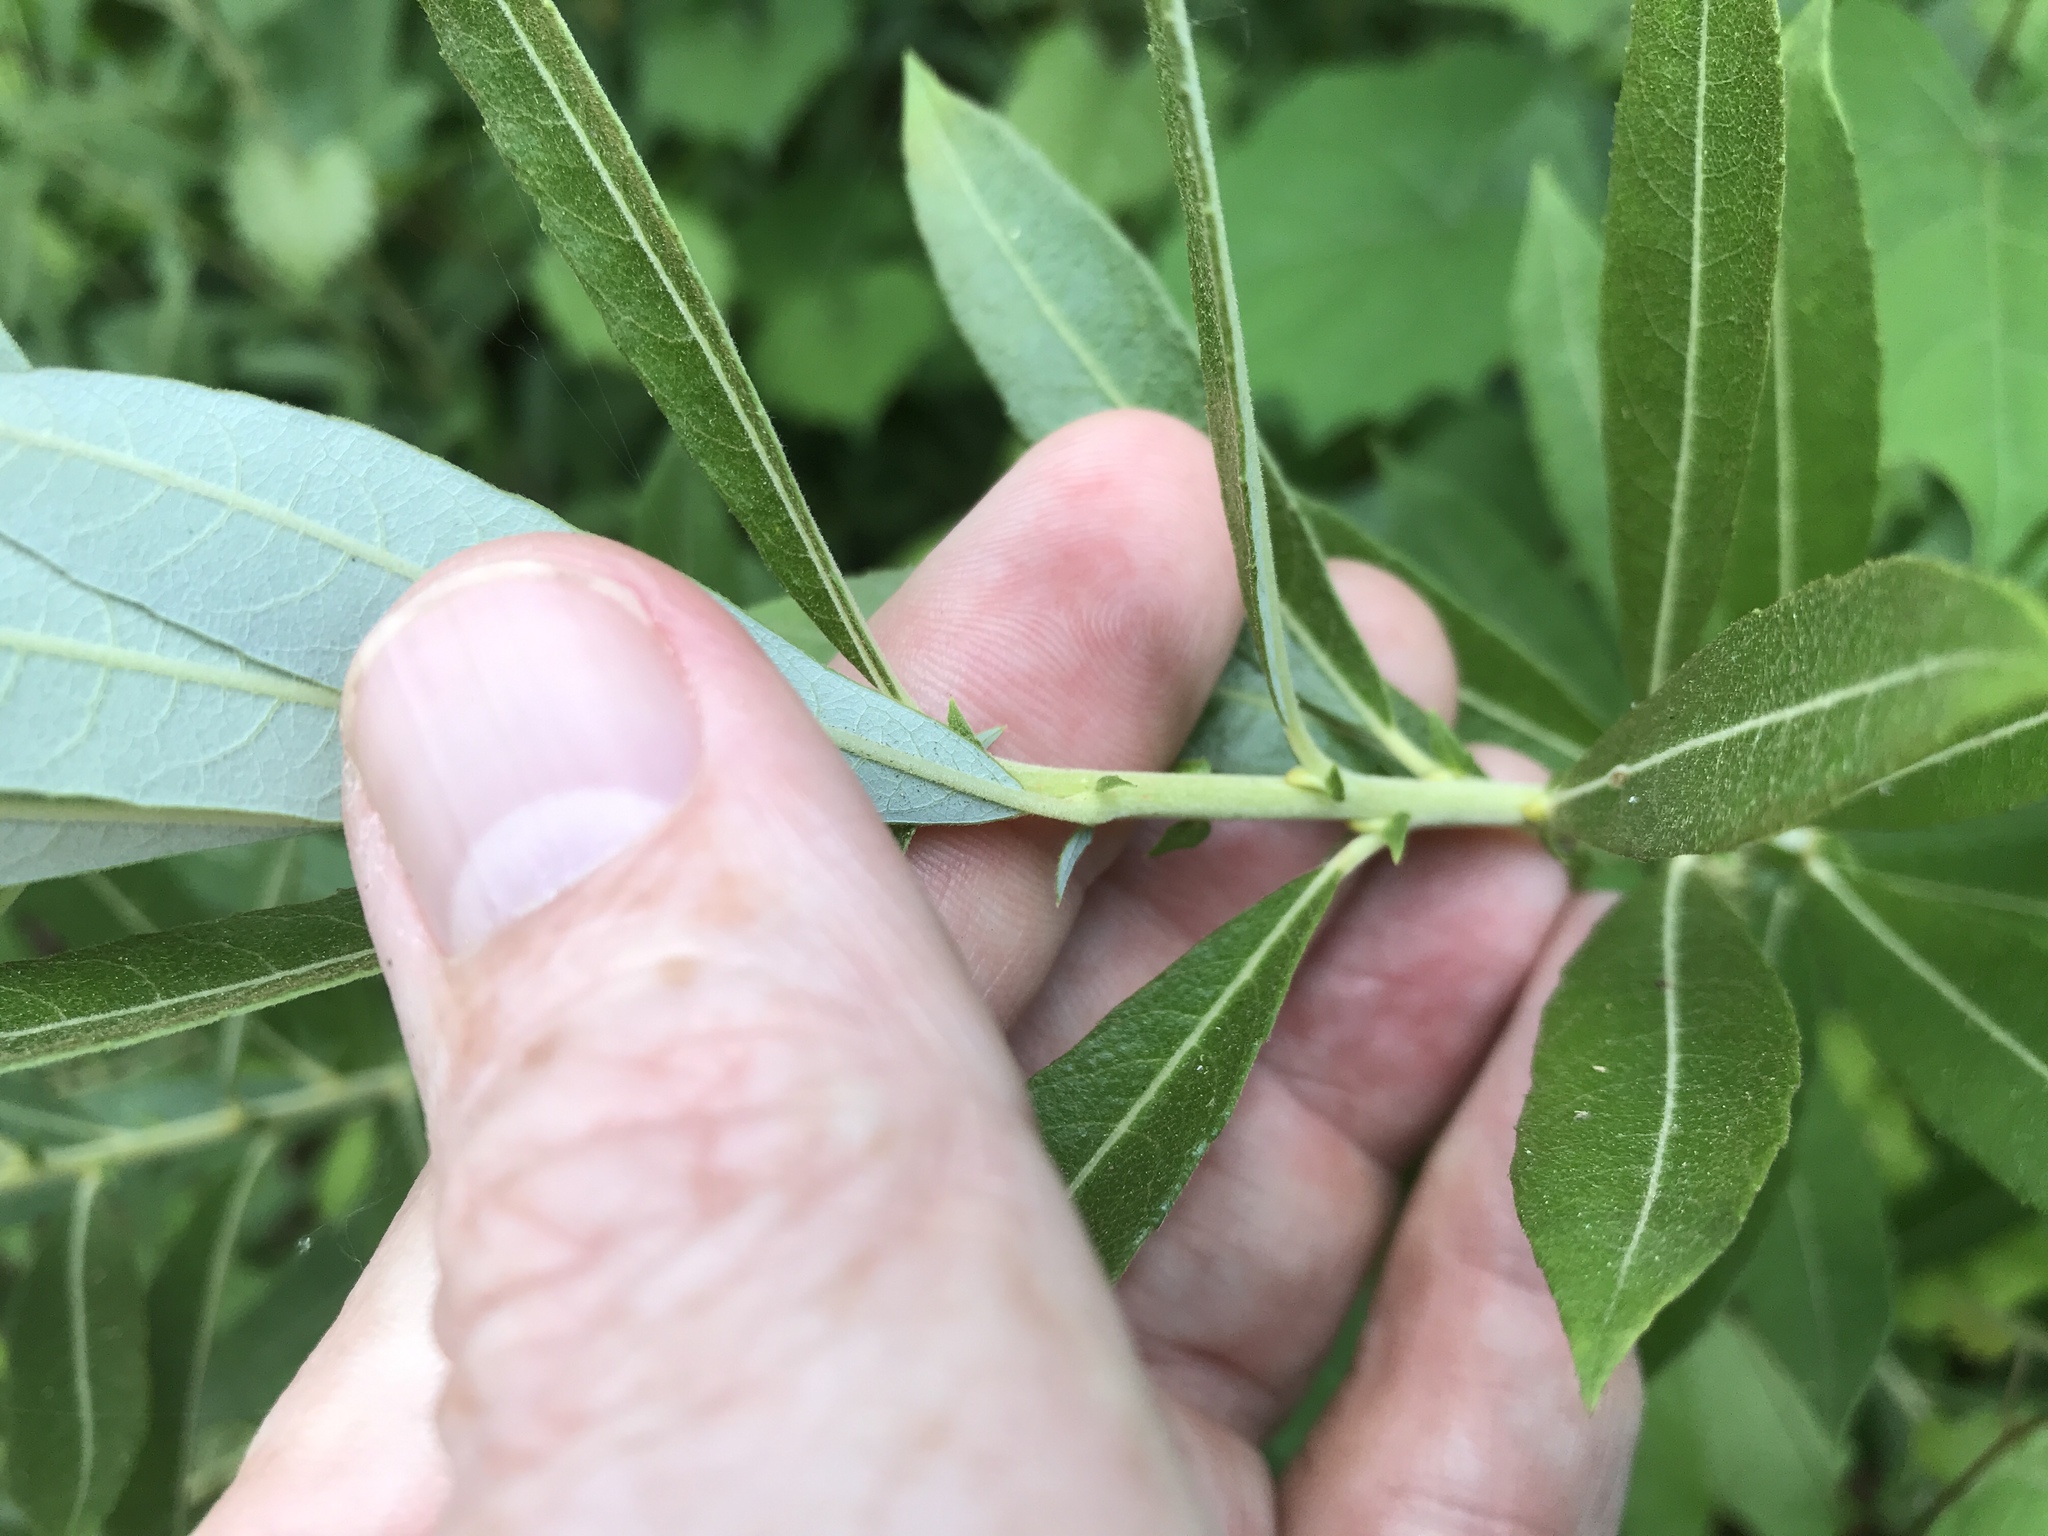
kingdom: Plantae
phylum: Tracheophyta
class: Magnoliopsida
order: Malpighiales
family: Salicaceae
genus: Salix
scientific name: Salix humilis
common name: Prairie willow
